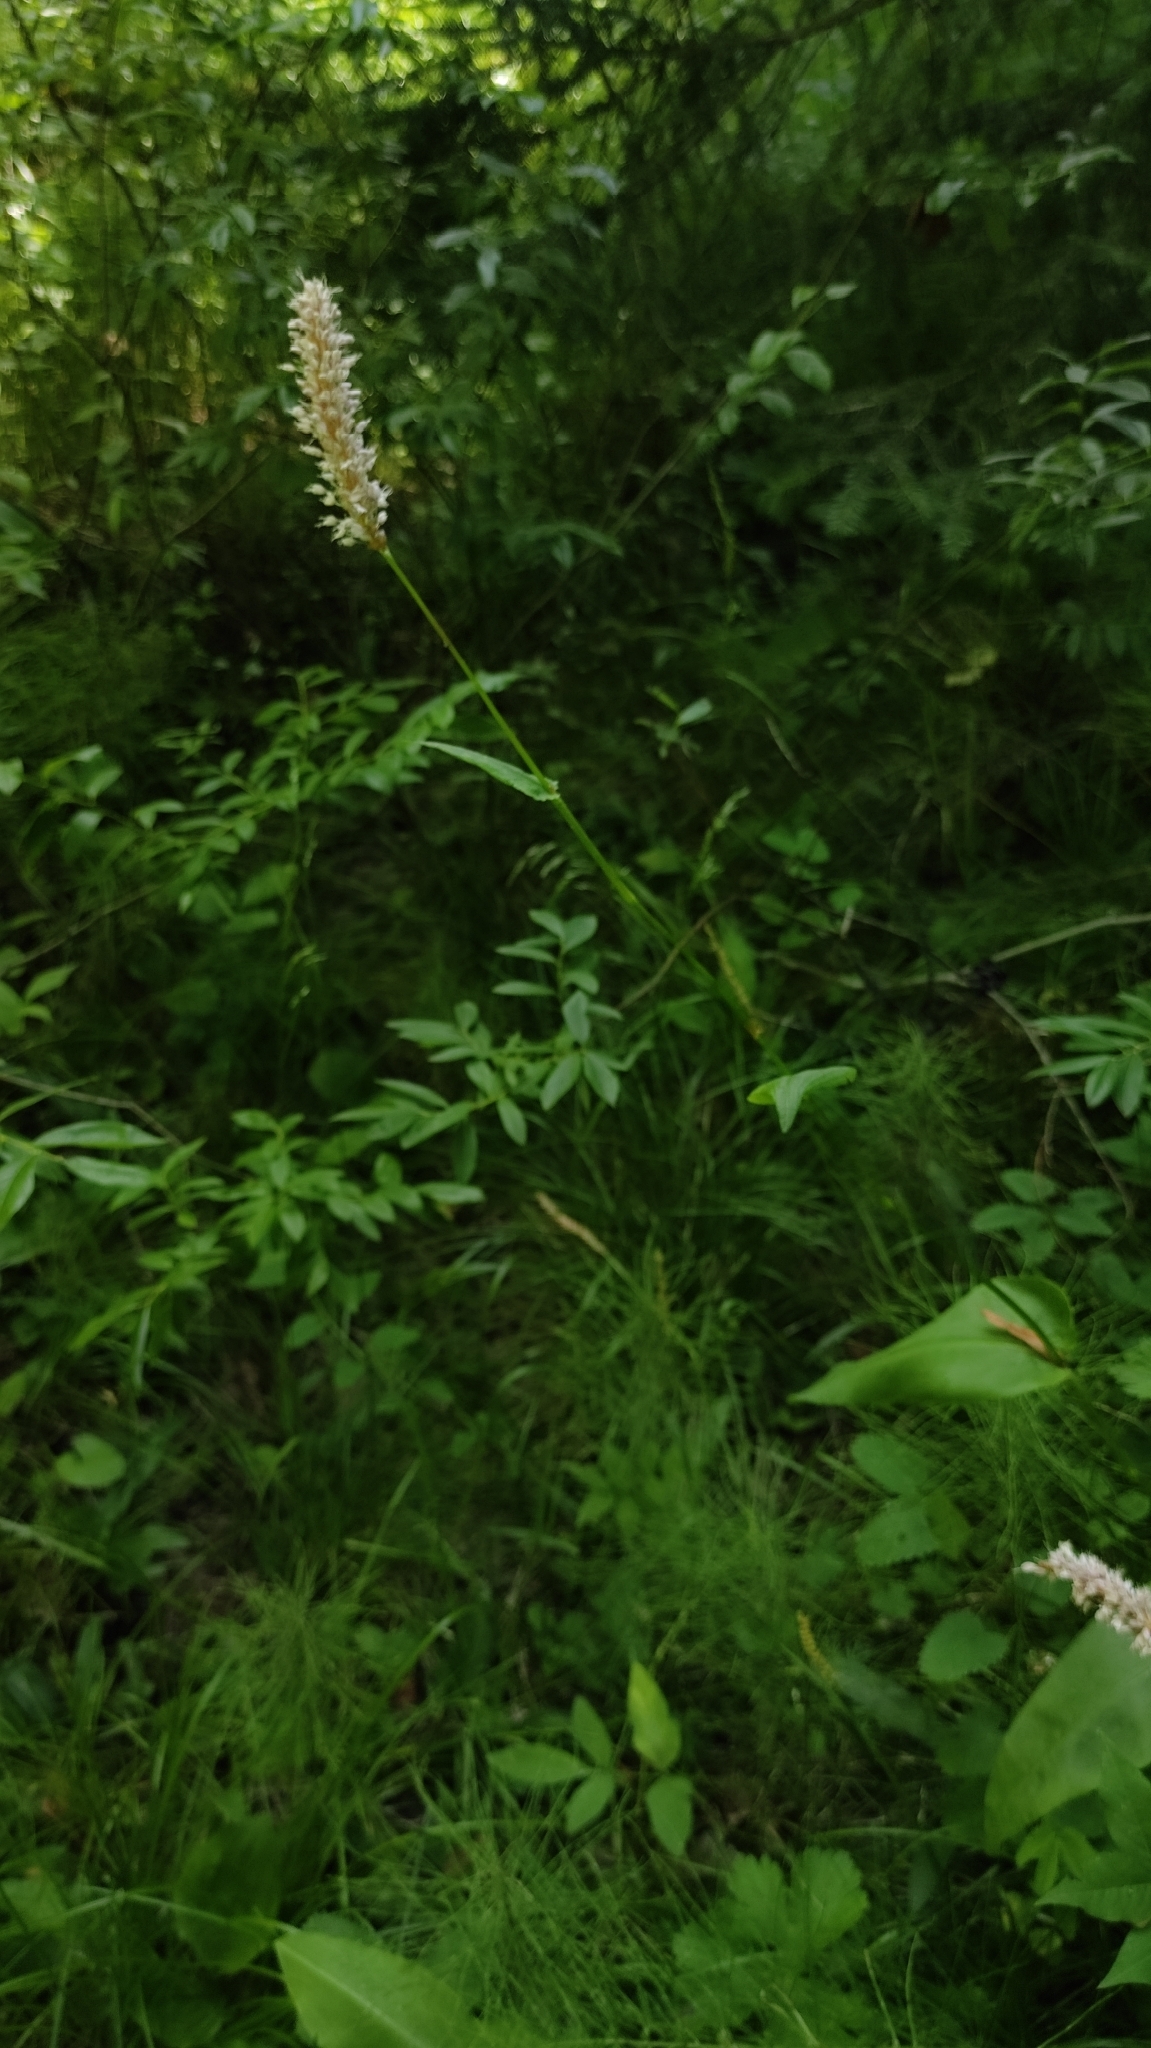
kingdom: Plantae
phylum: Tracheophyta
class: Magnoliopsida
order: Caryophyllales
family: Polygonaceae
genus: Bistorta
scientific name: Bistorta officinalis
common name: Common bistort
